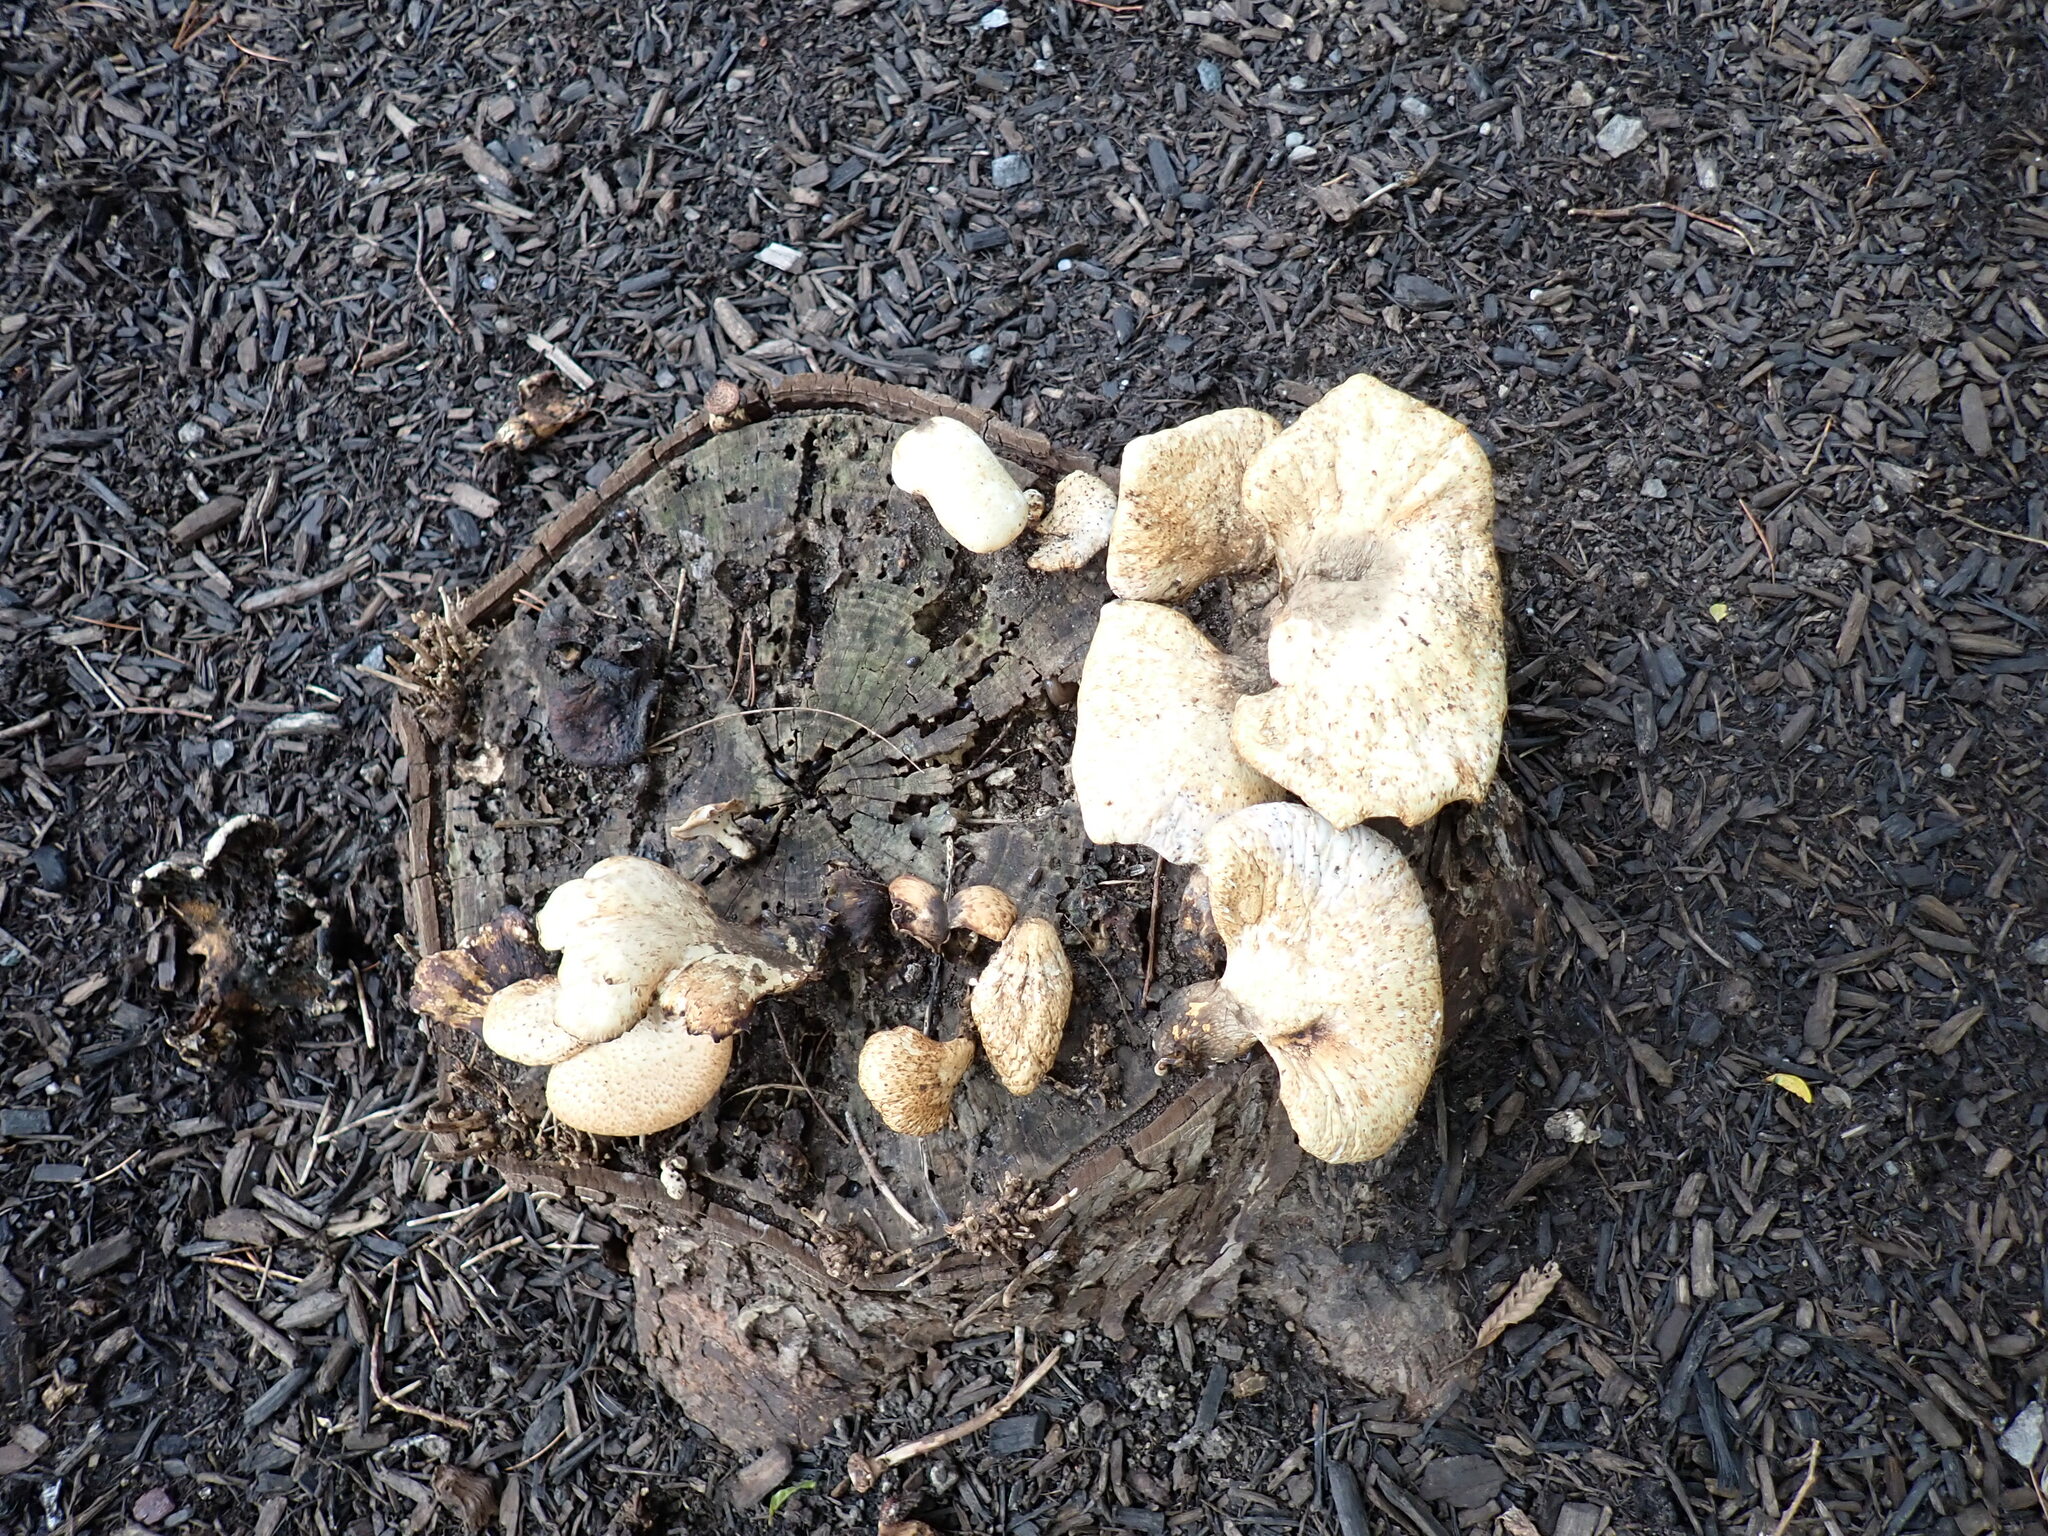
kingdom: Fungi
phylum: Basidiomycota
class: Agaricomycetes
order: Polyporales
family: Polyporaceae
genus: Cerioporus
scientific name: Cerioporus squamosus
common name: Dryad's saddle
